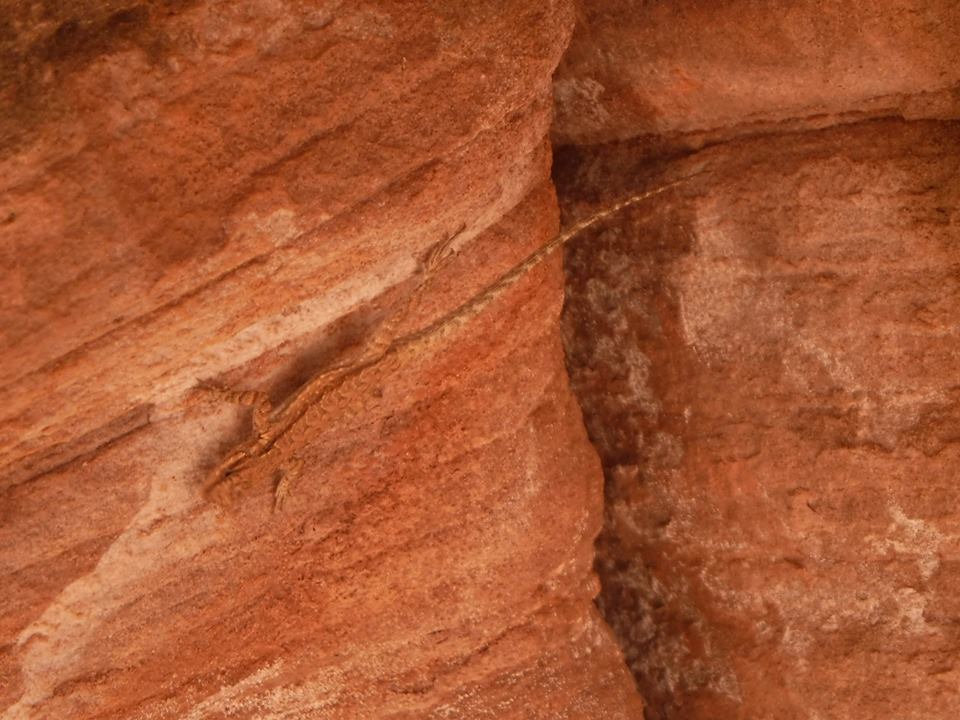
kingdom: Animalia
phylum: Chordata
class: Squamata
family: Phrynosomatidae
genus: Urosaurus
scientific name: Urosaurus ornatus
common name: Ornate tree lizard
